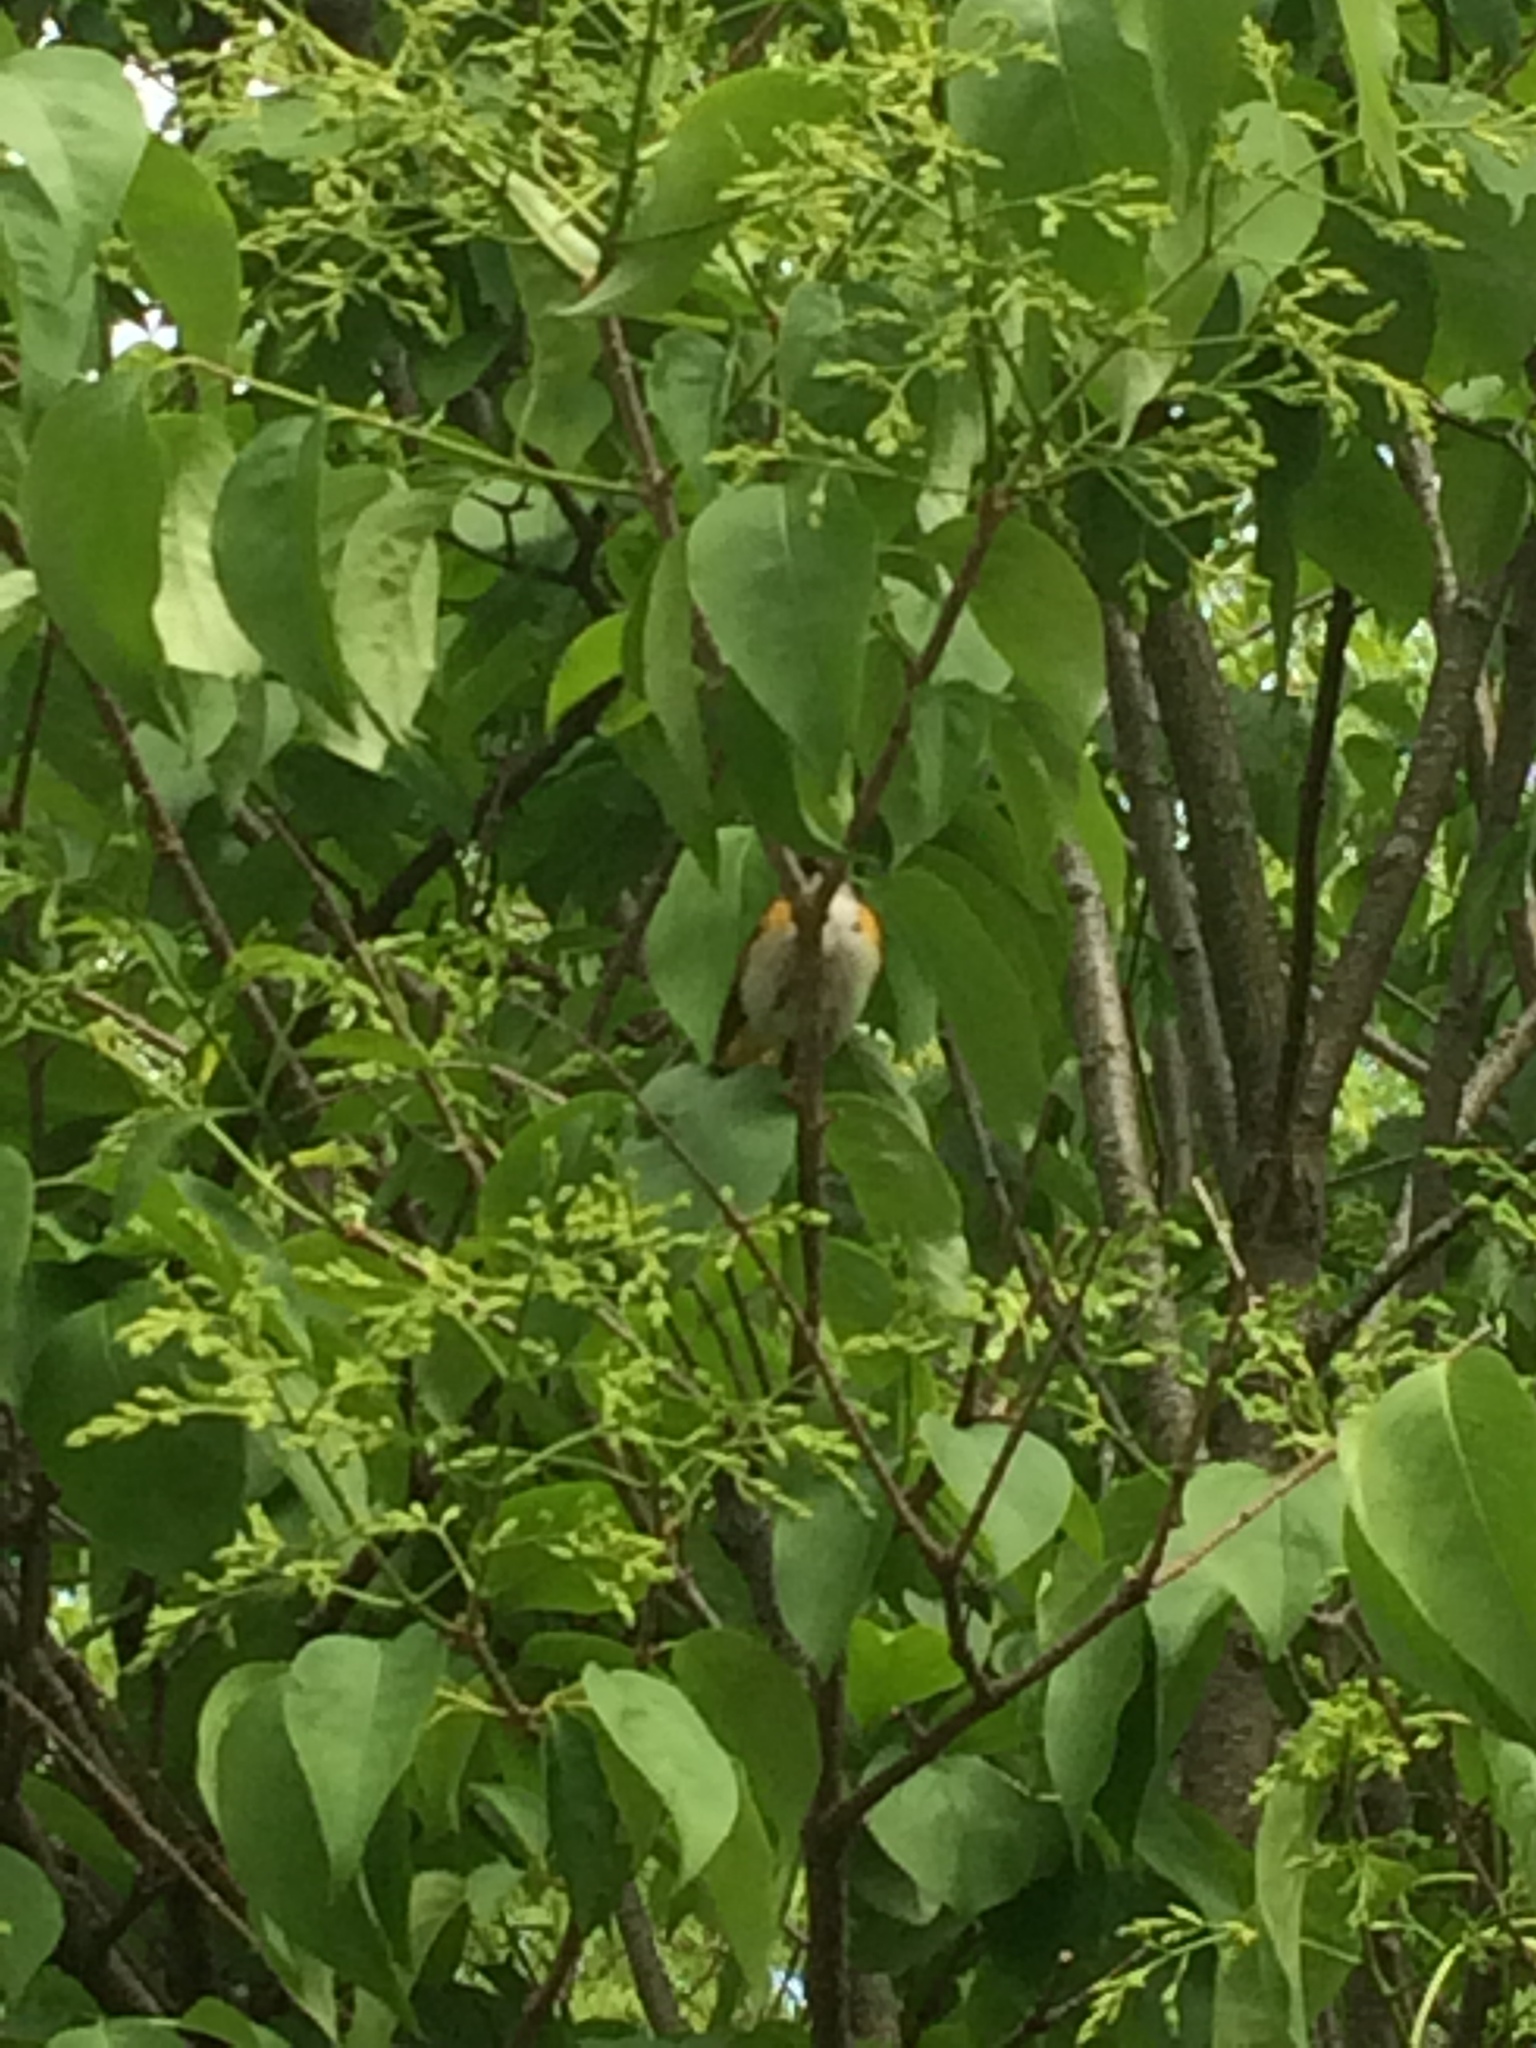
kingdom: Animalia
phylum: Chordata
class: Aves
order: Passeriformes
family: Parulidae
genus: Setophaga
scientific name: Setophaga ruticilla
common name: American redstart
